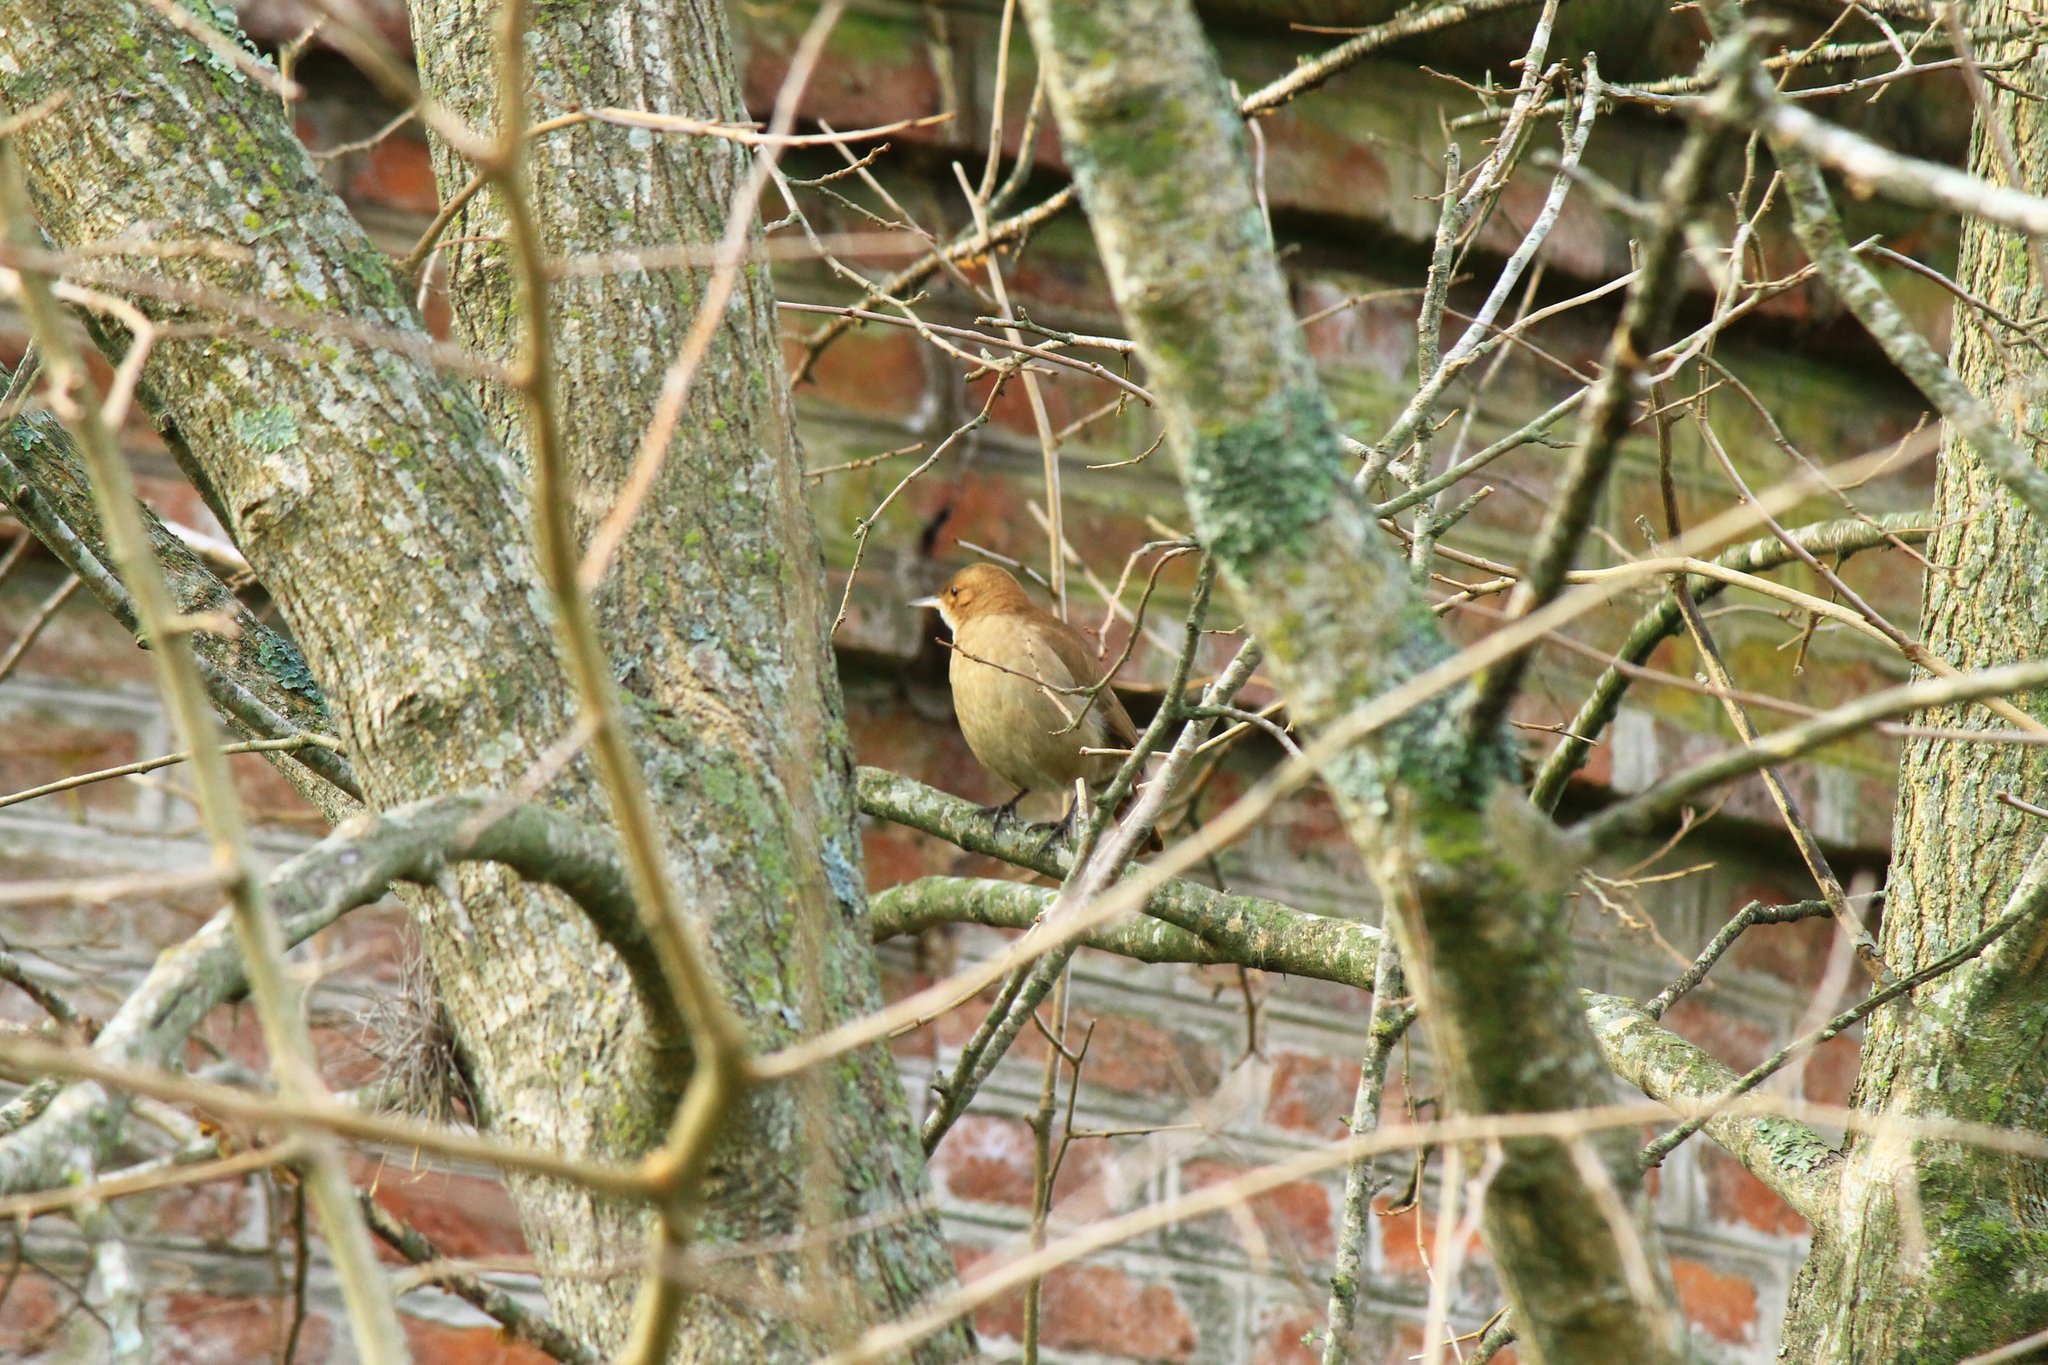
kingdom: Animalia
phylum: Chordata
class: Aves
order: Passeriformes
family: Furnariidae
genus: Furnarius
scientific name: Furnarius rufus
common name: Rufous hornero
